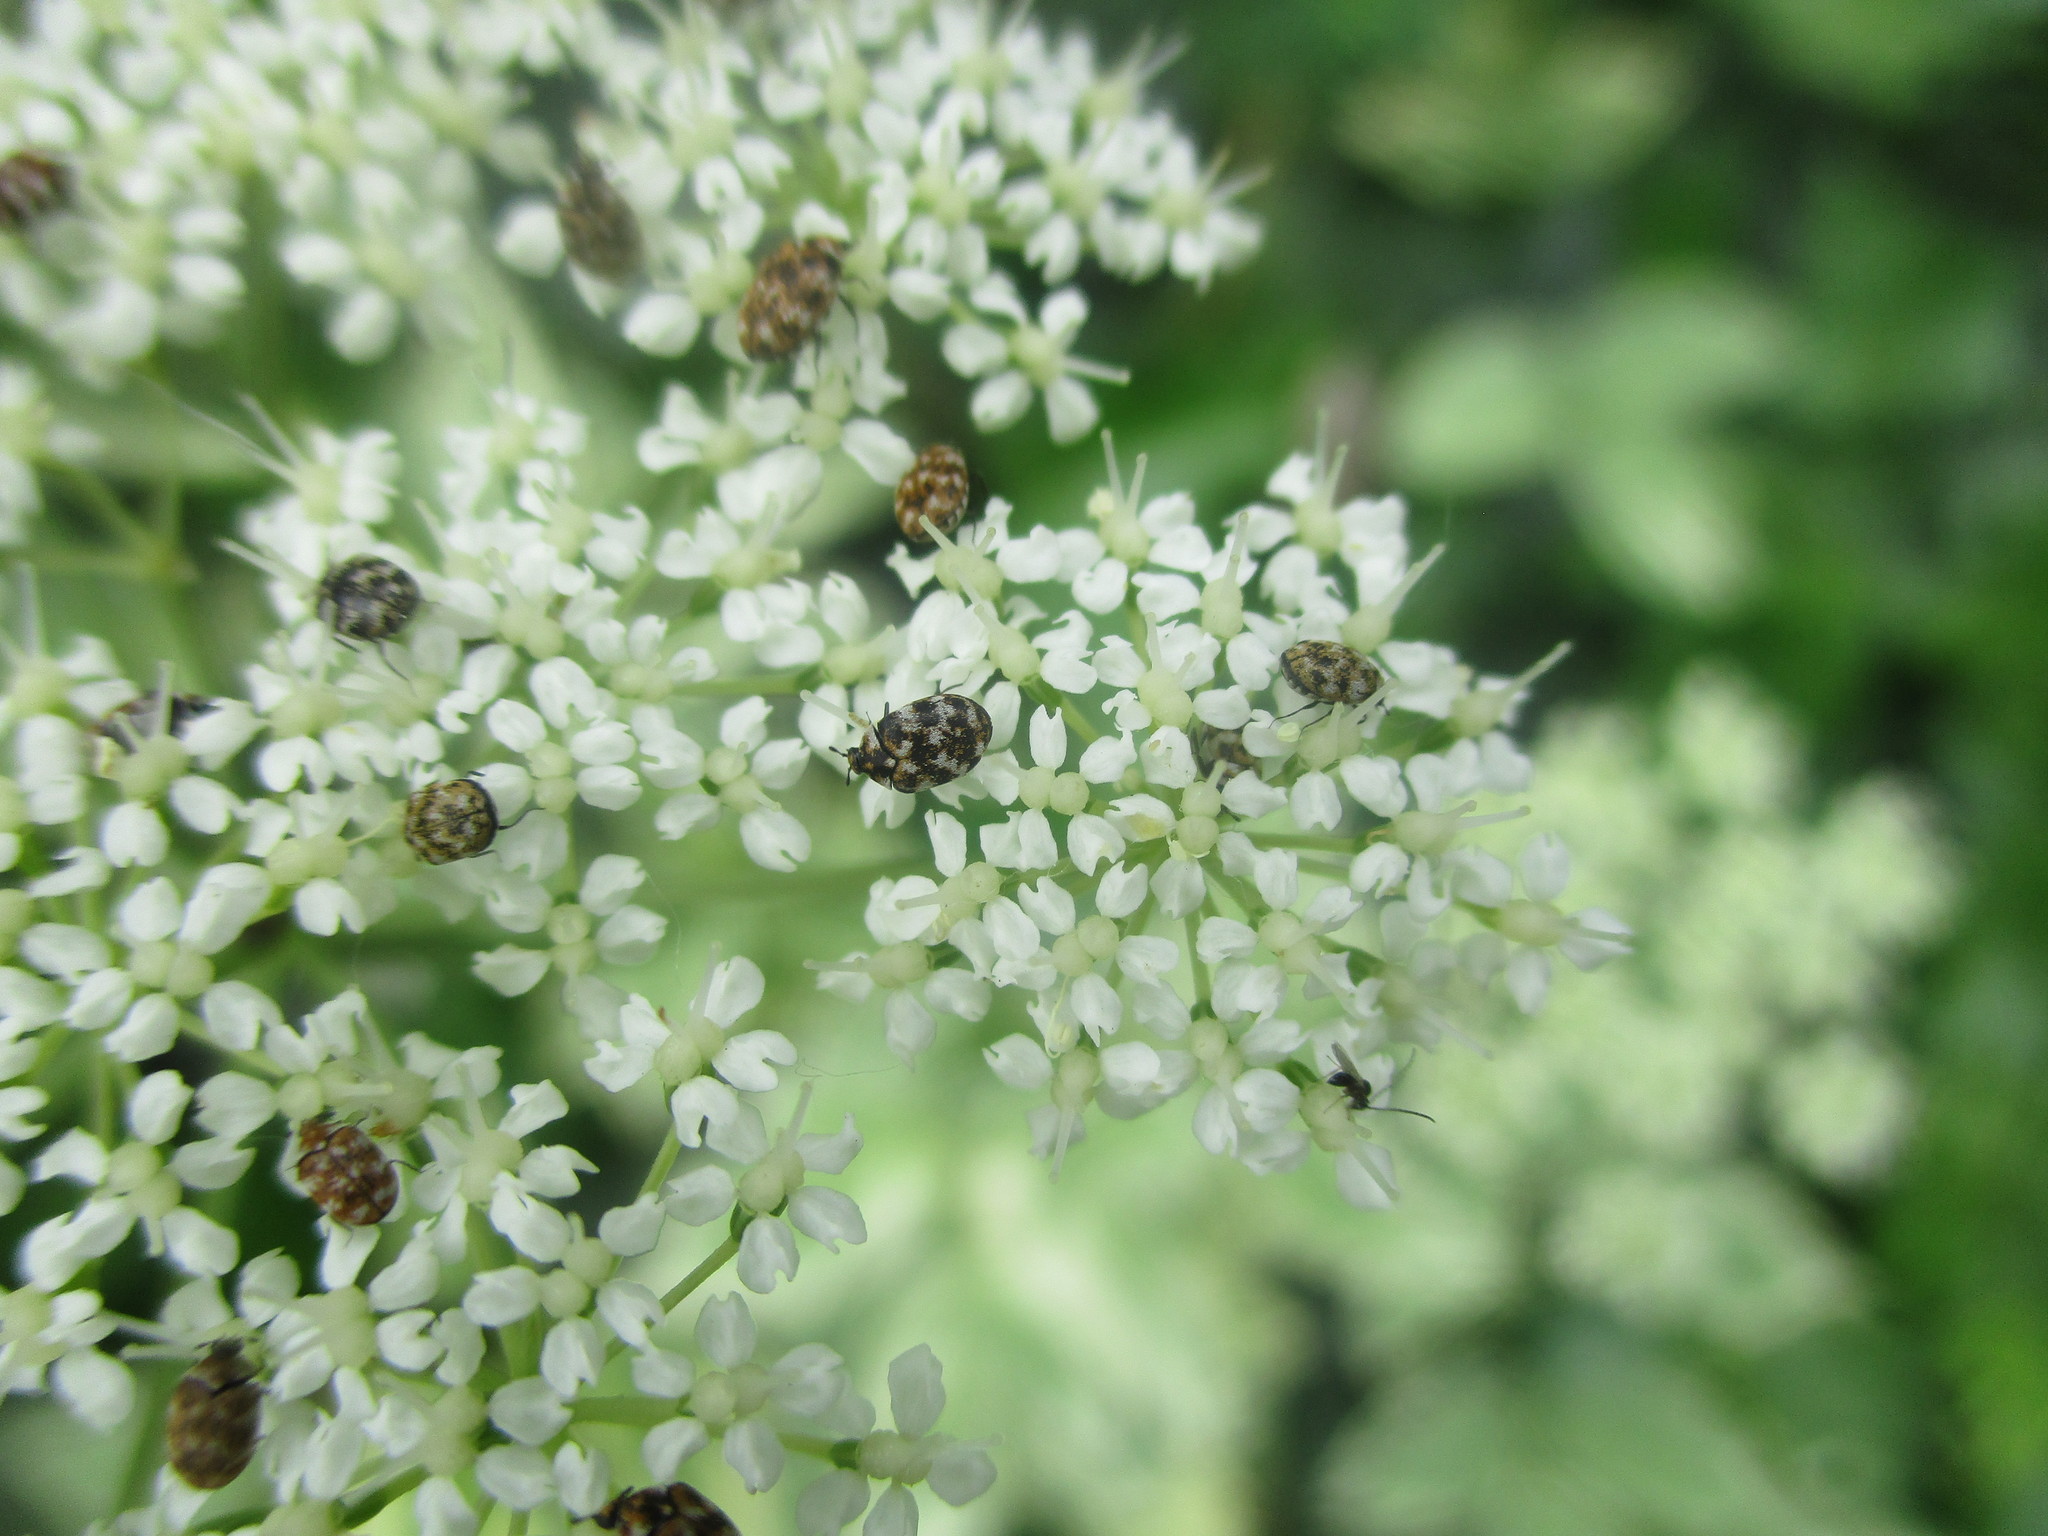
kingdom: Animalia
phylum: Arthropoda
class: Insecta
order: Coleoptera
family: Dermestidae
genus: Anthrenus
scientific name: Anthrenus verbasci
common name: Varied carpet beetle
